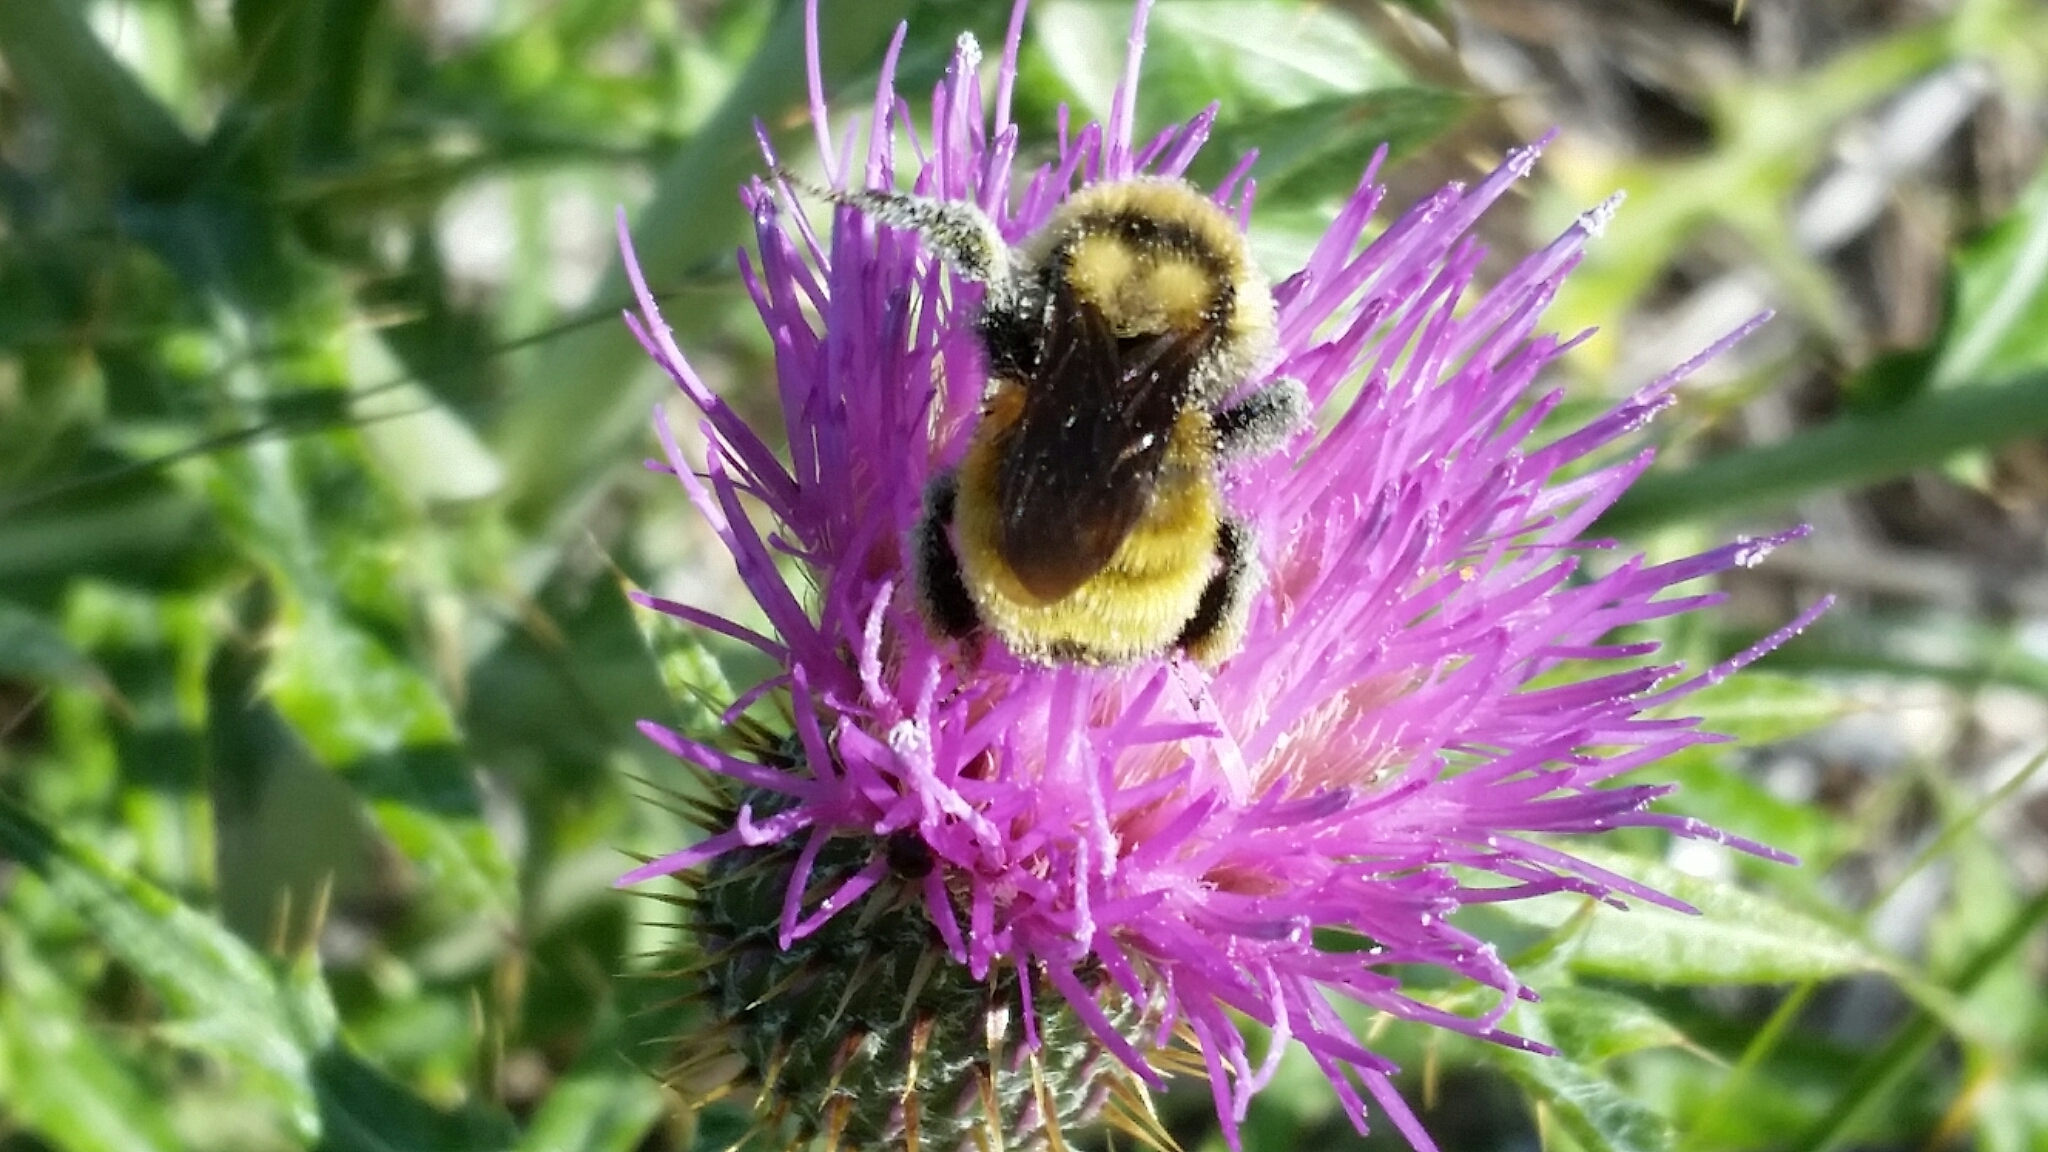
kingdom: Animalia
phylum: Arthropoda
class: Insecta
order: Hymenoptera
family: Apidae
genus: Bombus
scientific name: Bombus fervidus
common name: Yellow bumble bee
